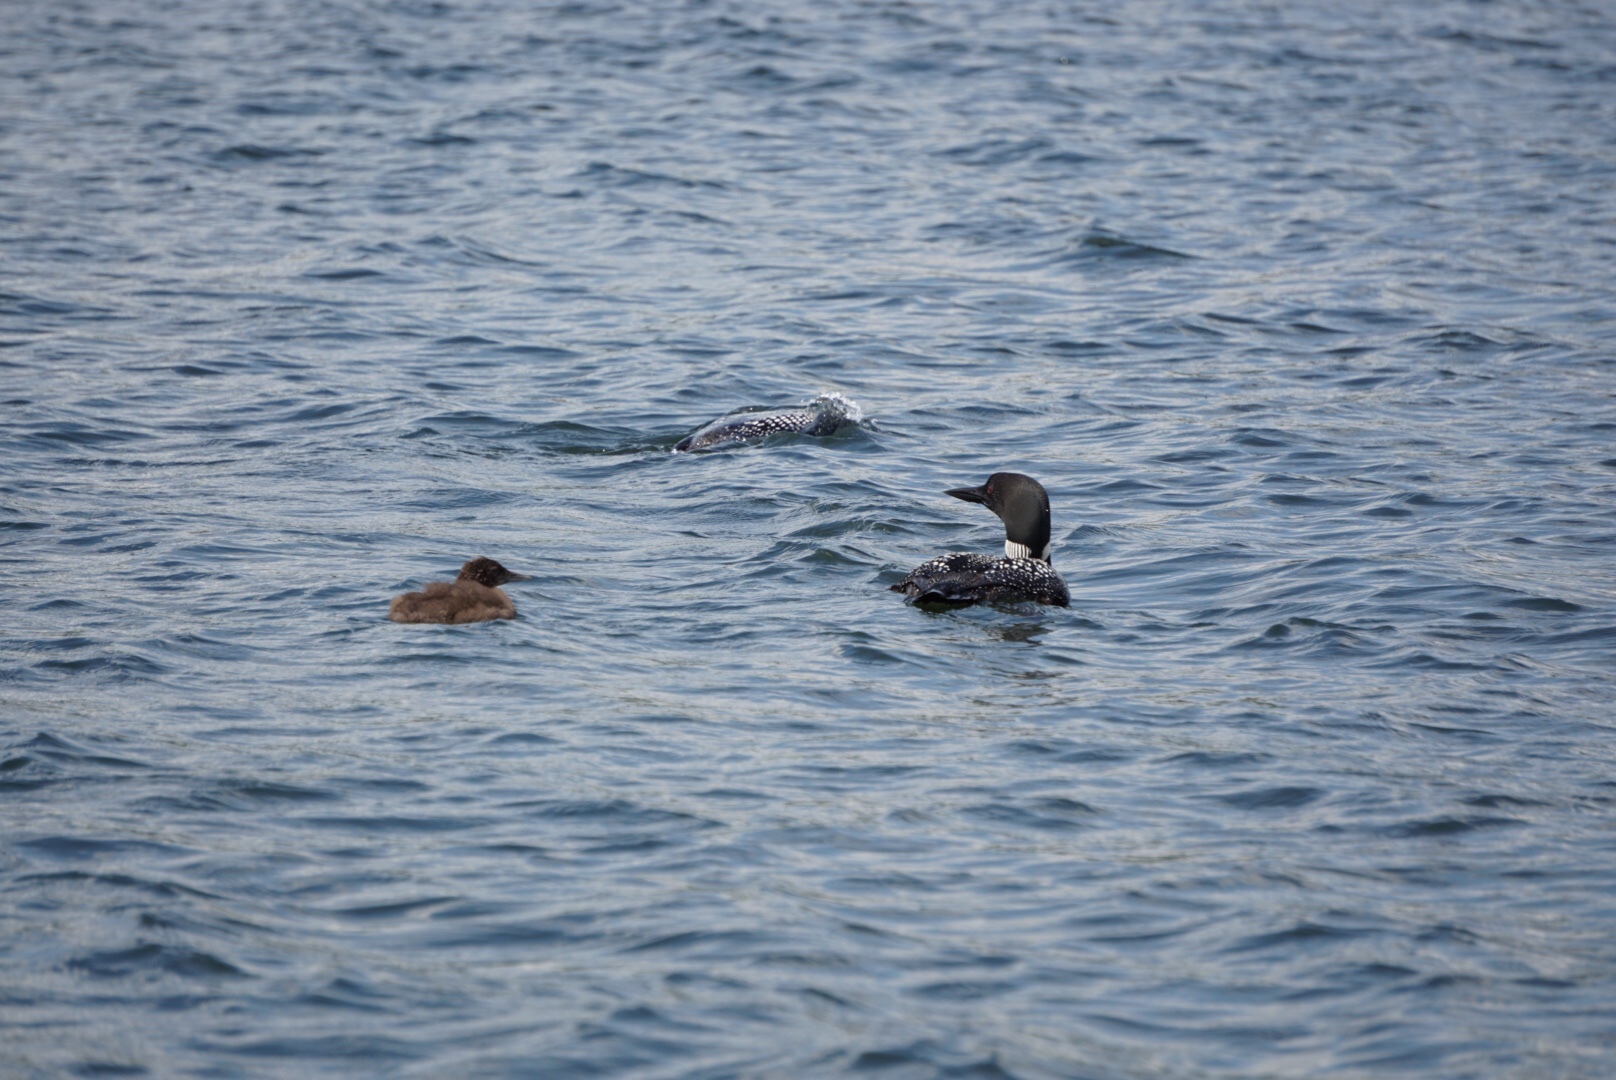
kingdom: Animalia
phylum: Chordata
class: Aves
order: Gaviiformes
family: Gaviidae
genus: Gavia
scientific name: Gavia immer
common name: Common loon
